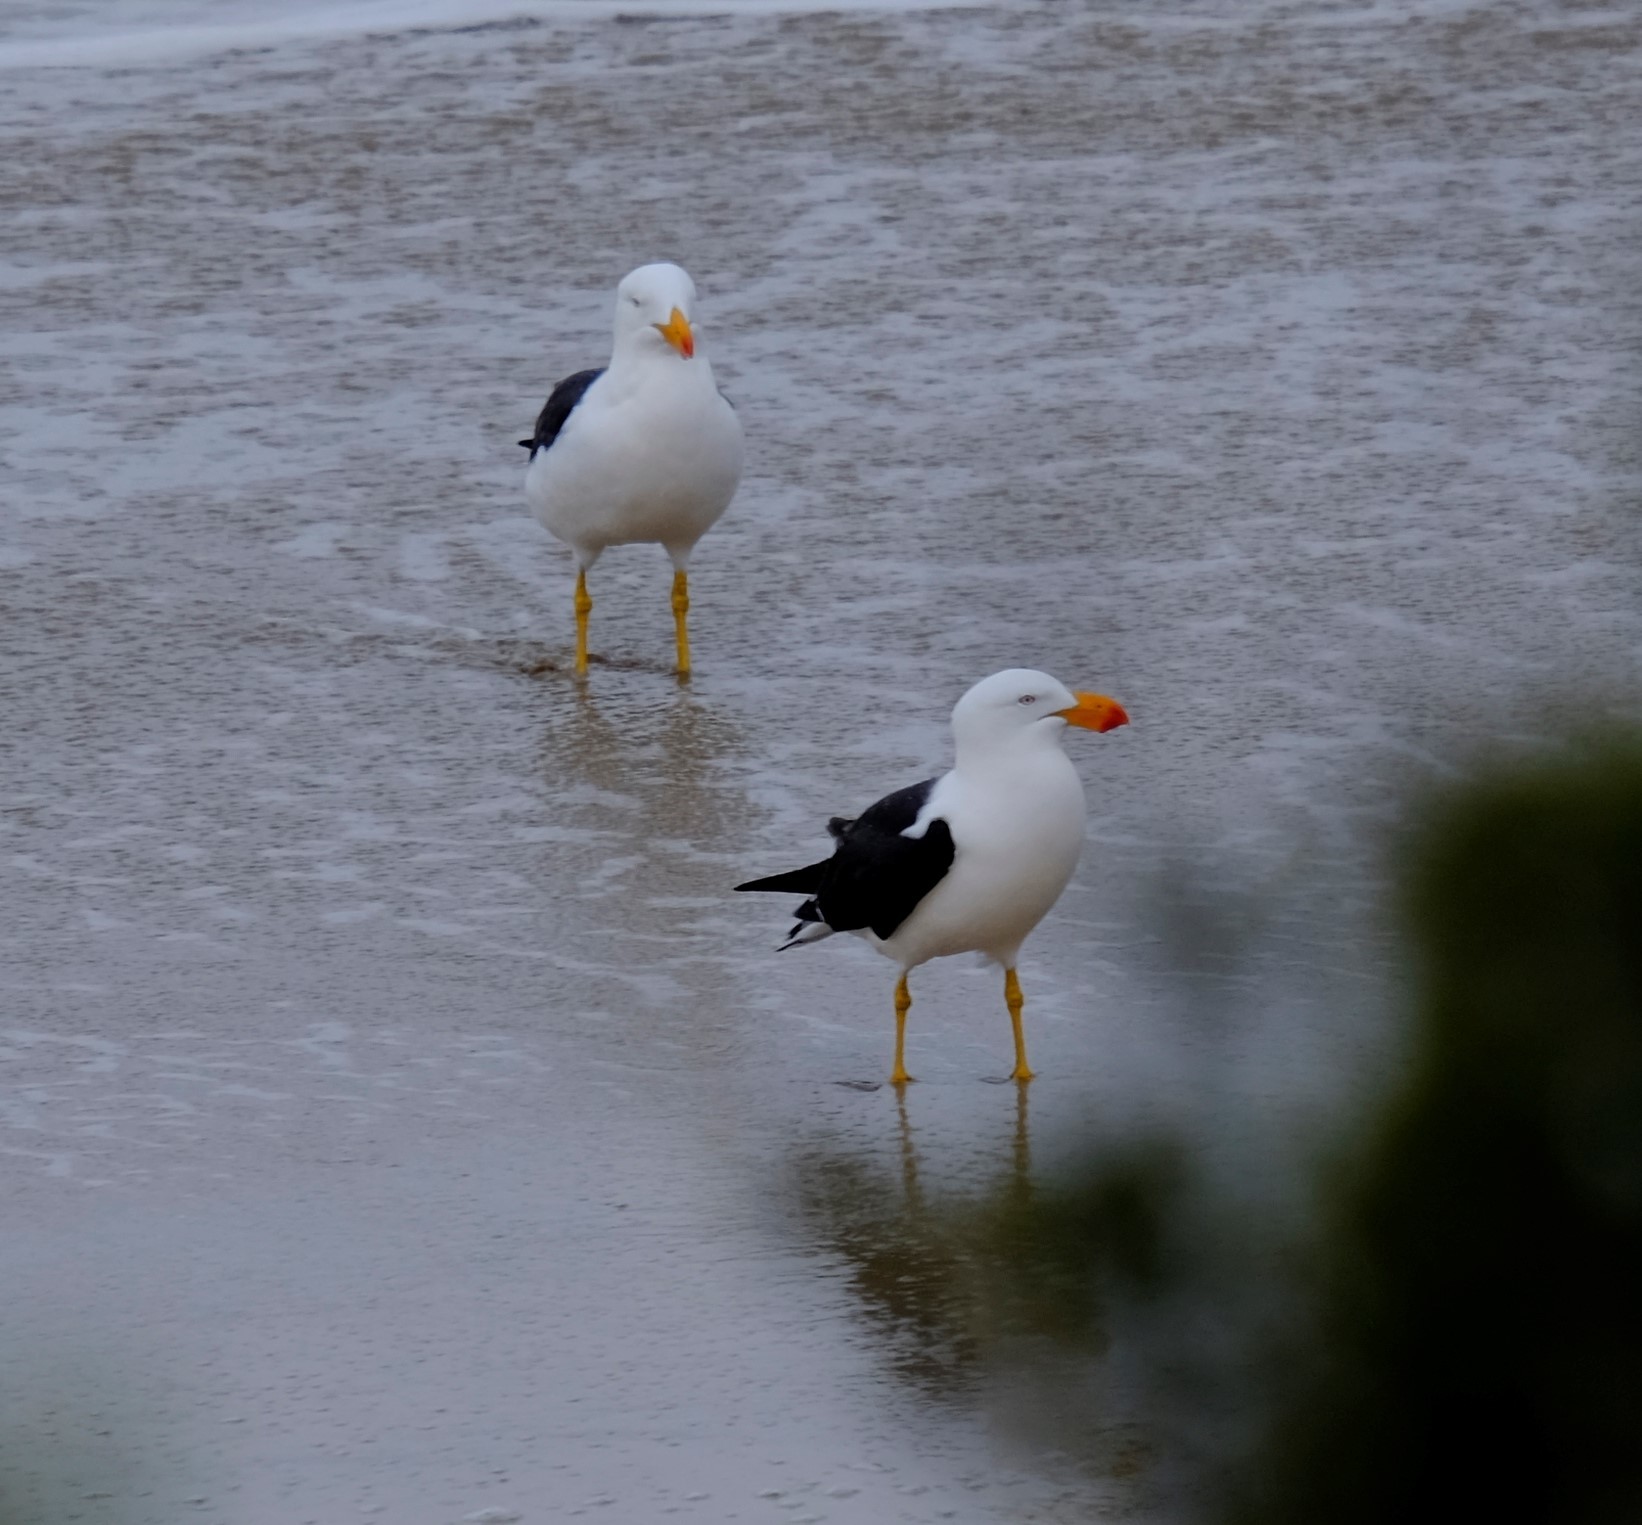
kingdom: Animalia
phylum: Chordata
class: Aves
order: Charadriiformes
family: Laridae
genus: Larus
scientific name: Larus pacificus
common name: Pacific gull
